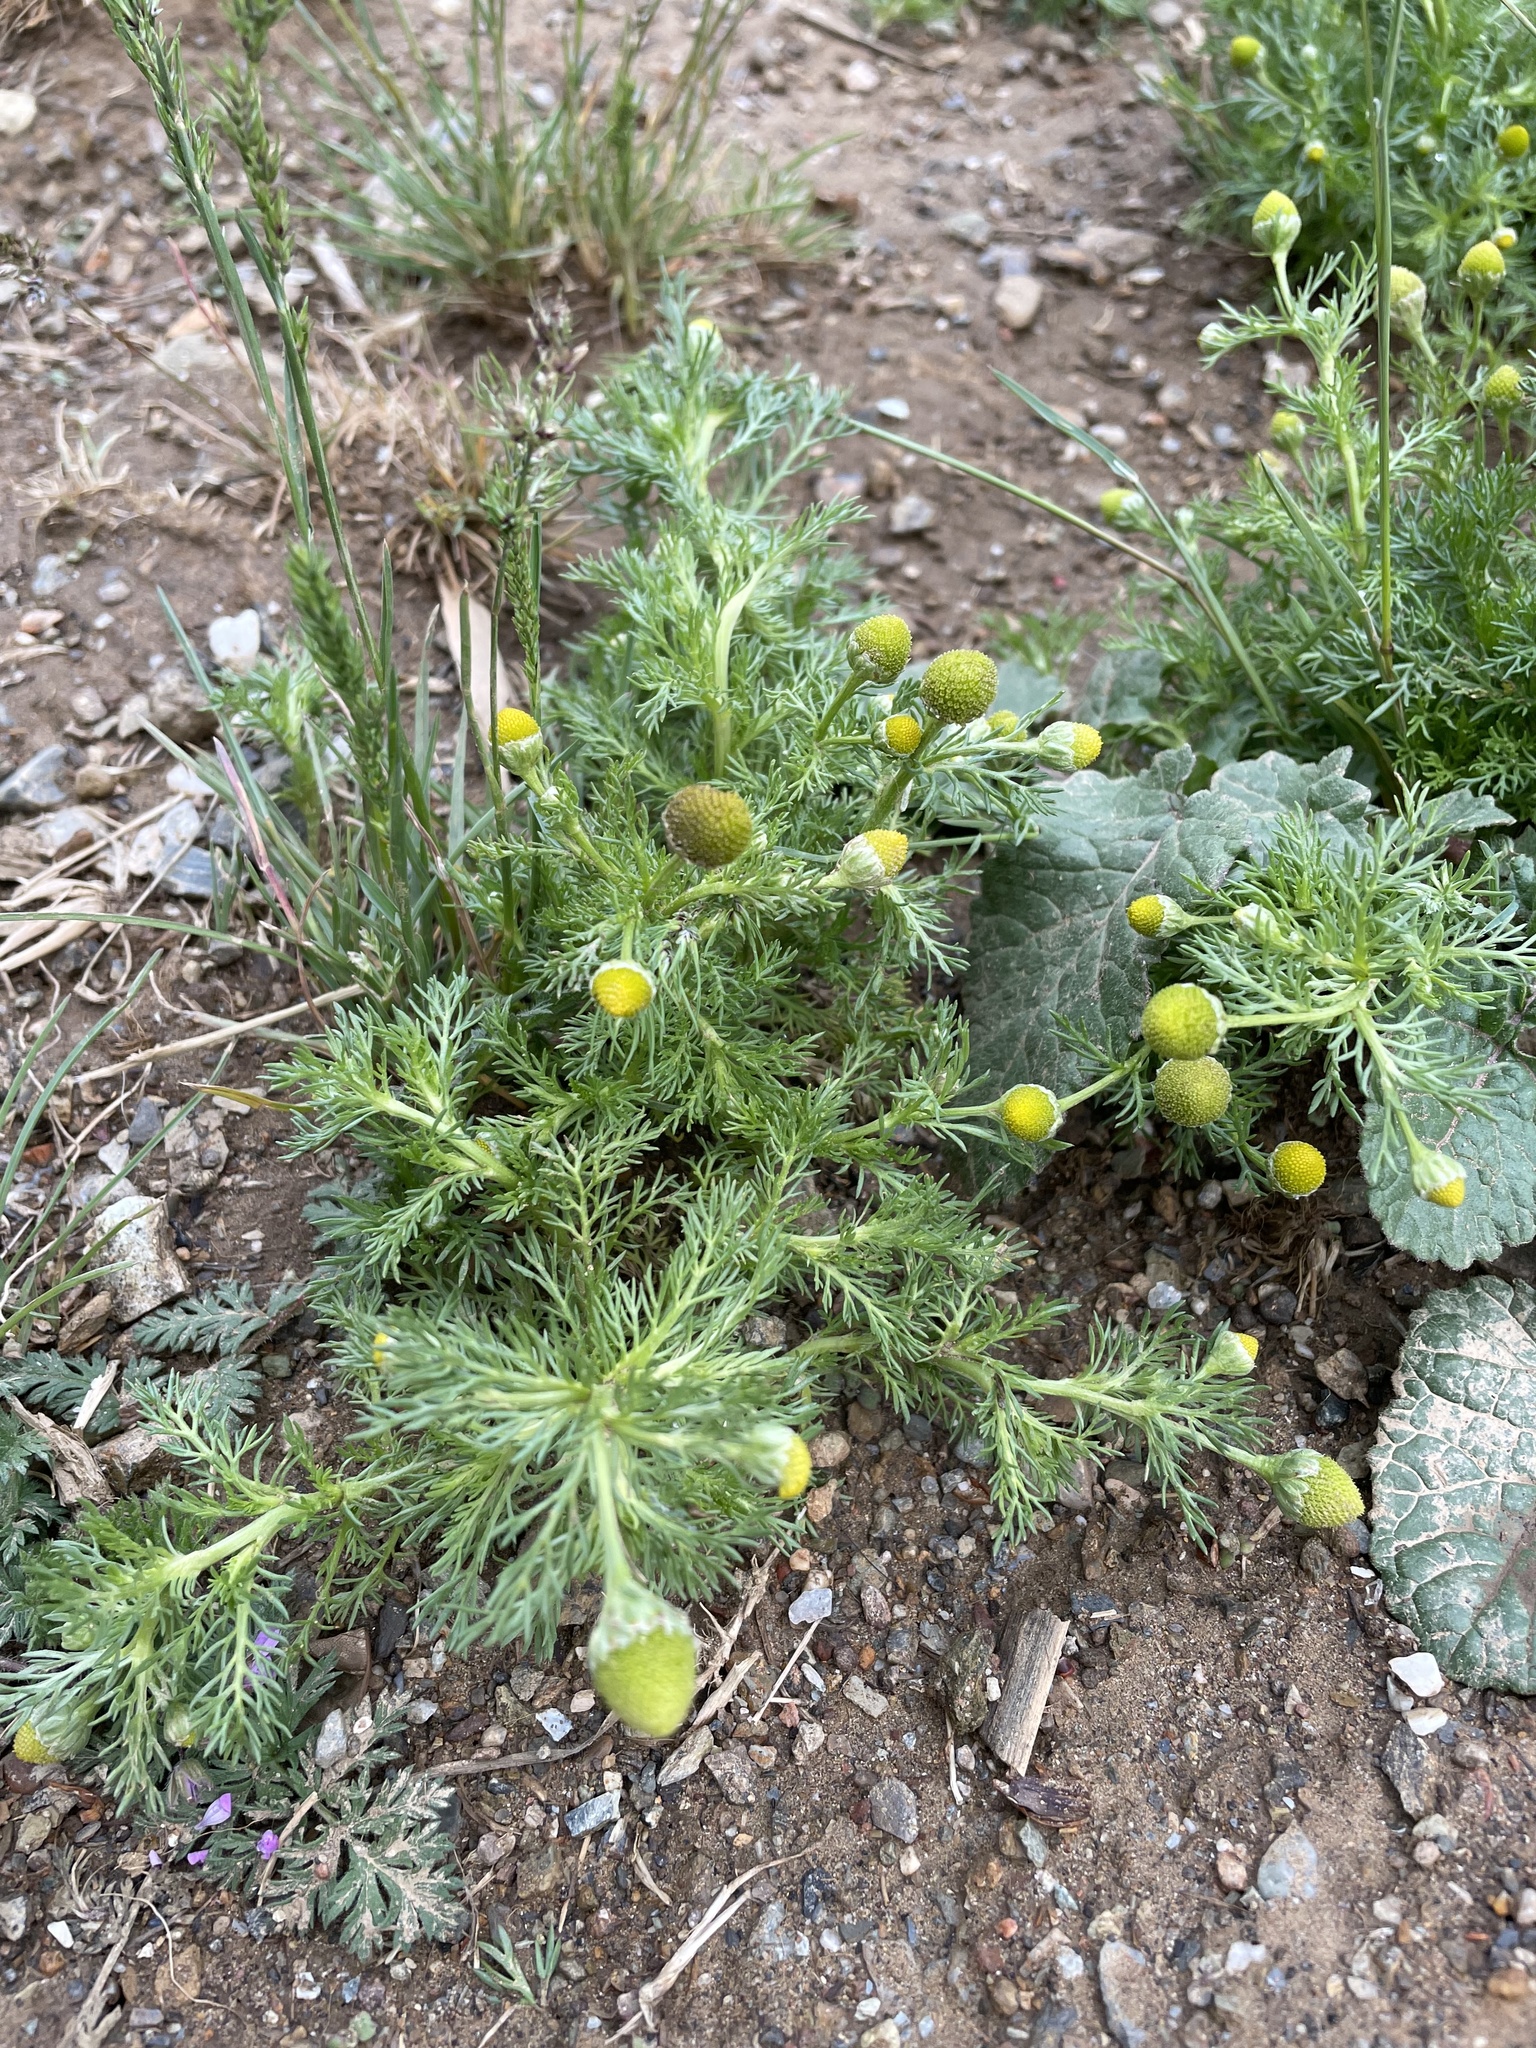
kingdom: Plantae
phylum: Tracheophyta
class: Magnoliopsida
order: Asterales
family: Asteraceae
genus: Matricaria
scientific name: Matricaria discoidea
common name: Disc mayweed
